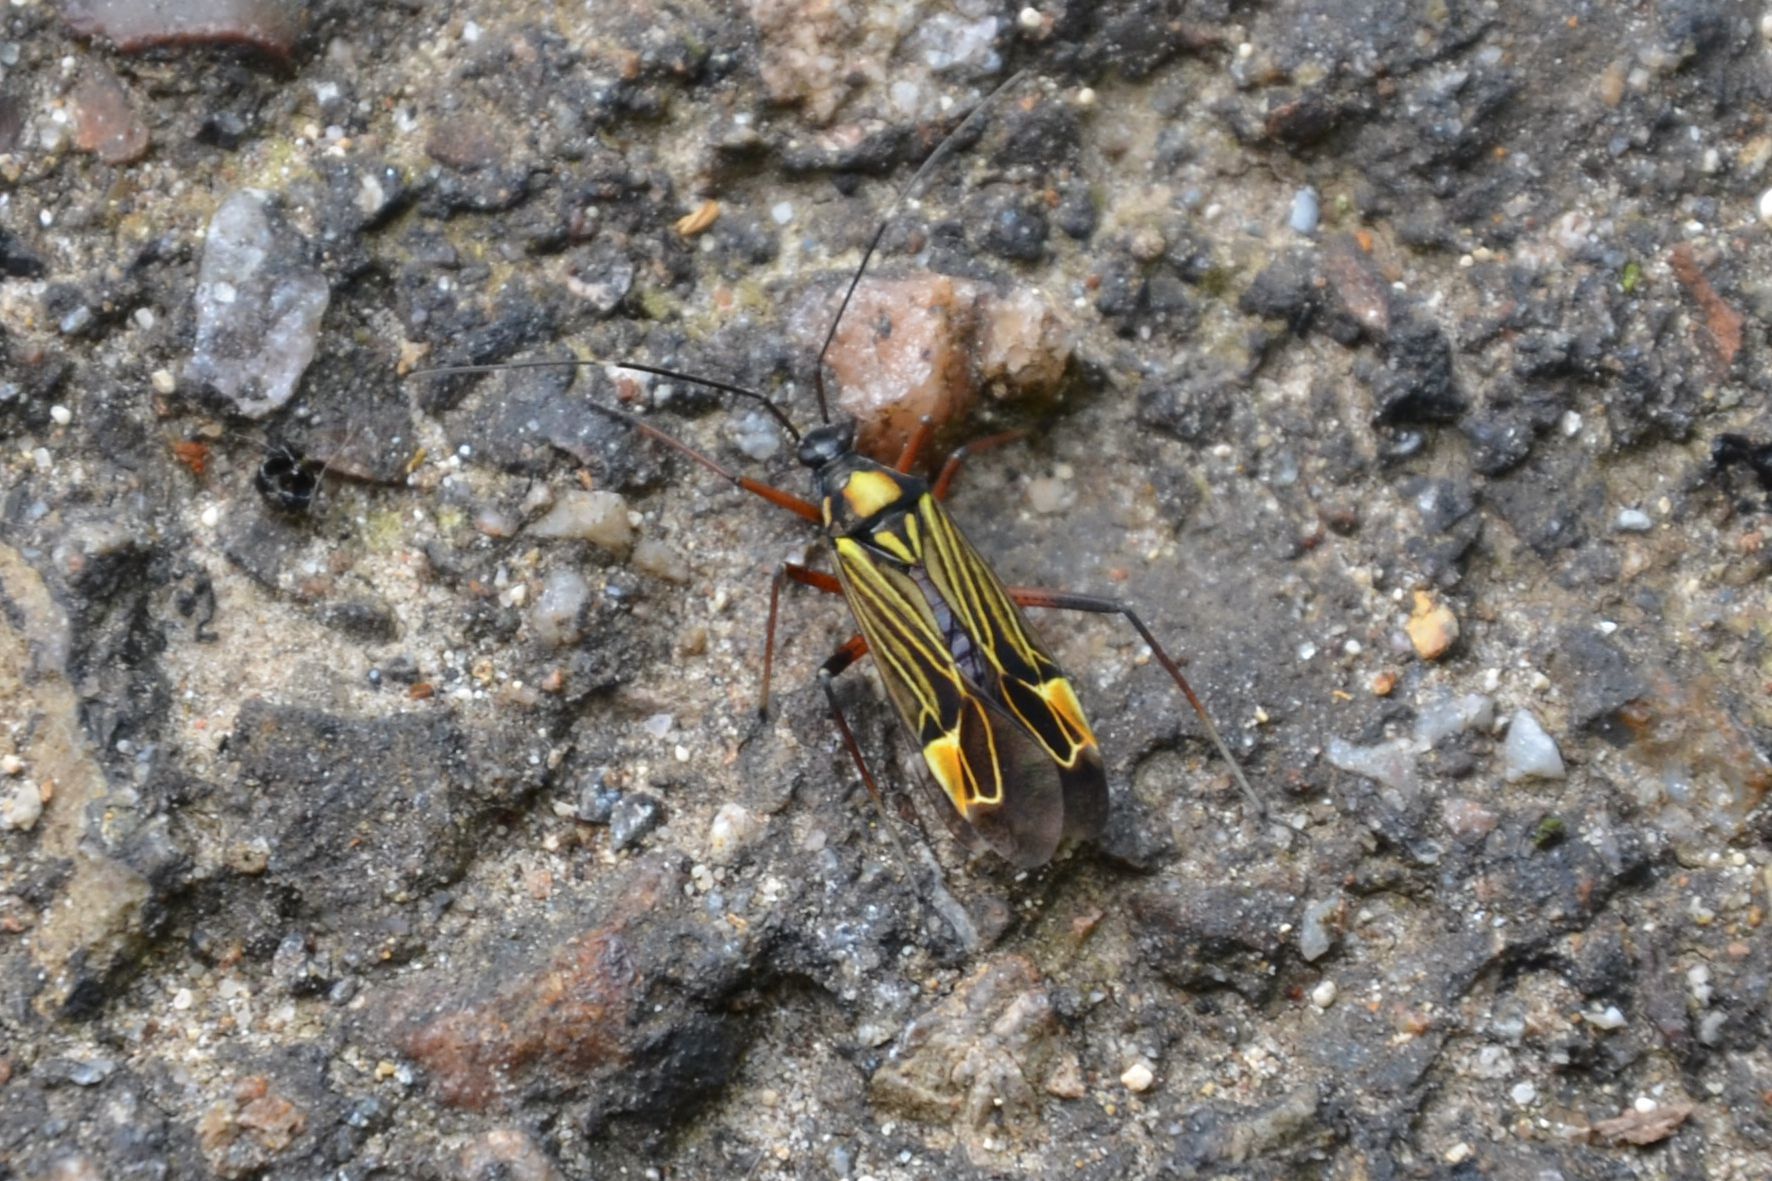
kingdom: Animalia
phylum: Arthropoda
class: Insecta
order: Hemiptera
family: Miridae
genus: Miris
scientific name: Miris striatus
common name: Fine streaked bugkin
